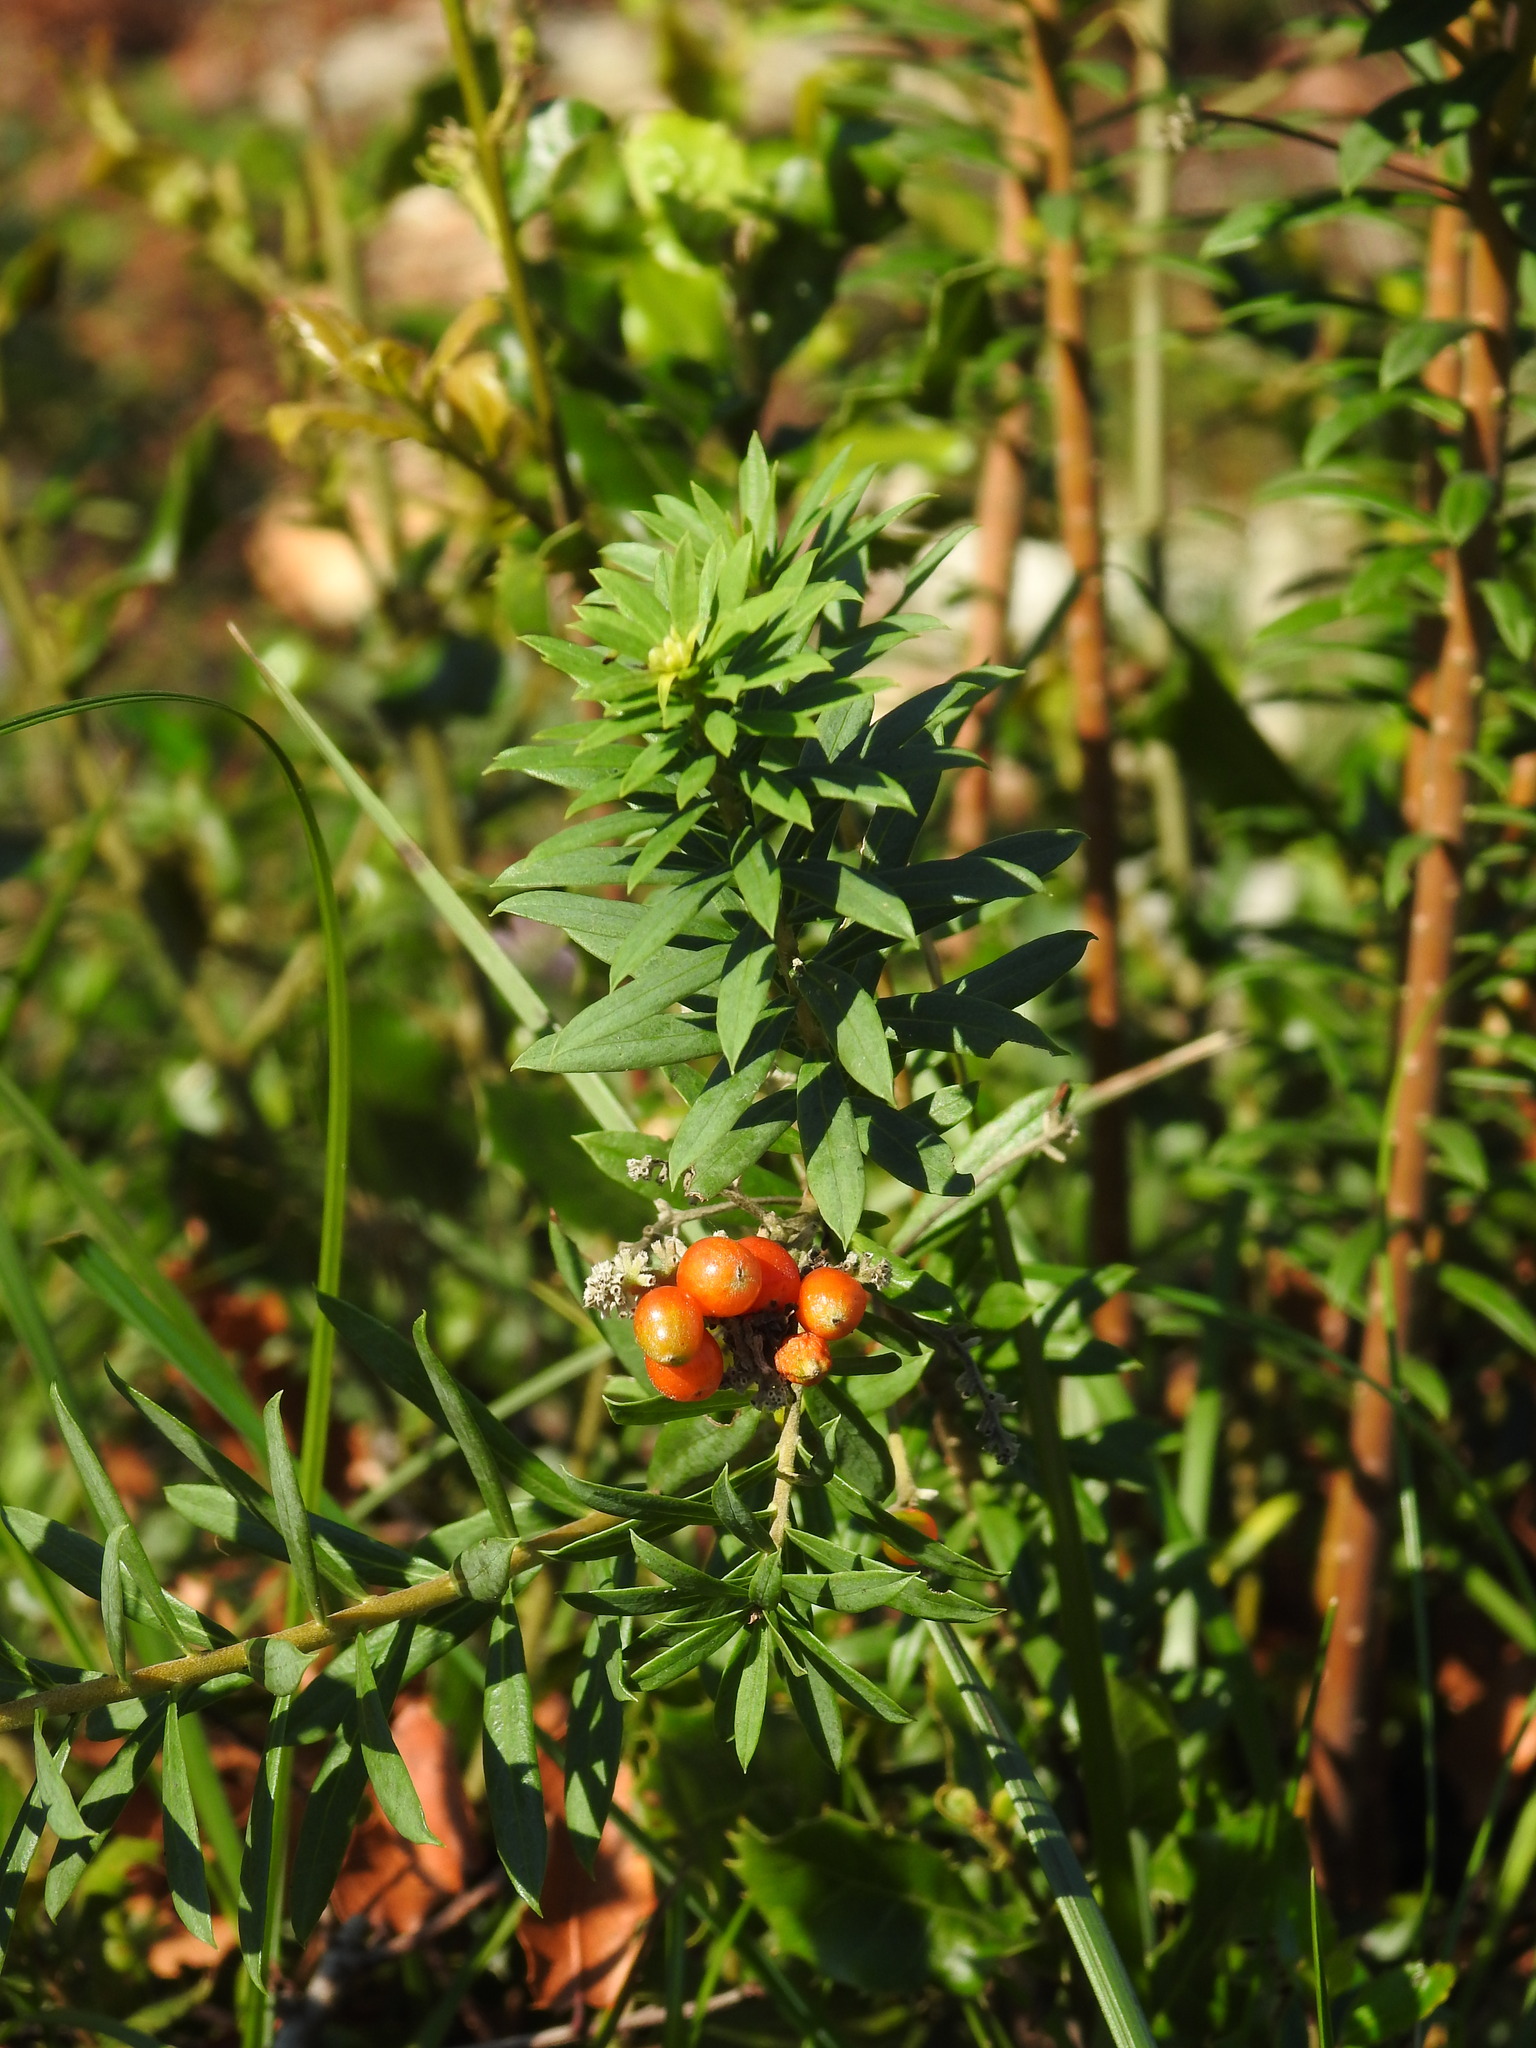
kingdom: Plantae
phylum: Tracheophyta
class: Magnoliopsida
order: Malvales
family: Thymelaeaceae
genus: Daphne
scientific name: Daphne gnidium
